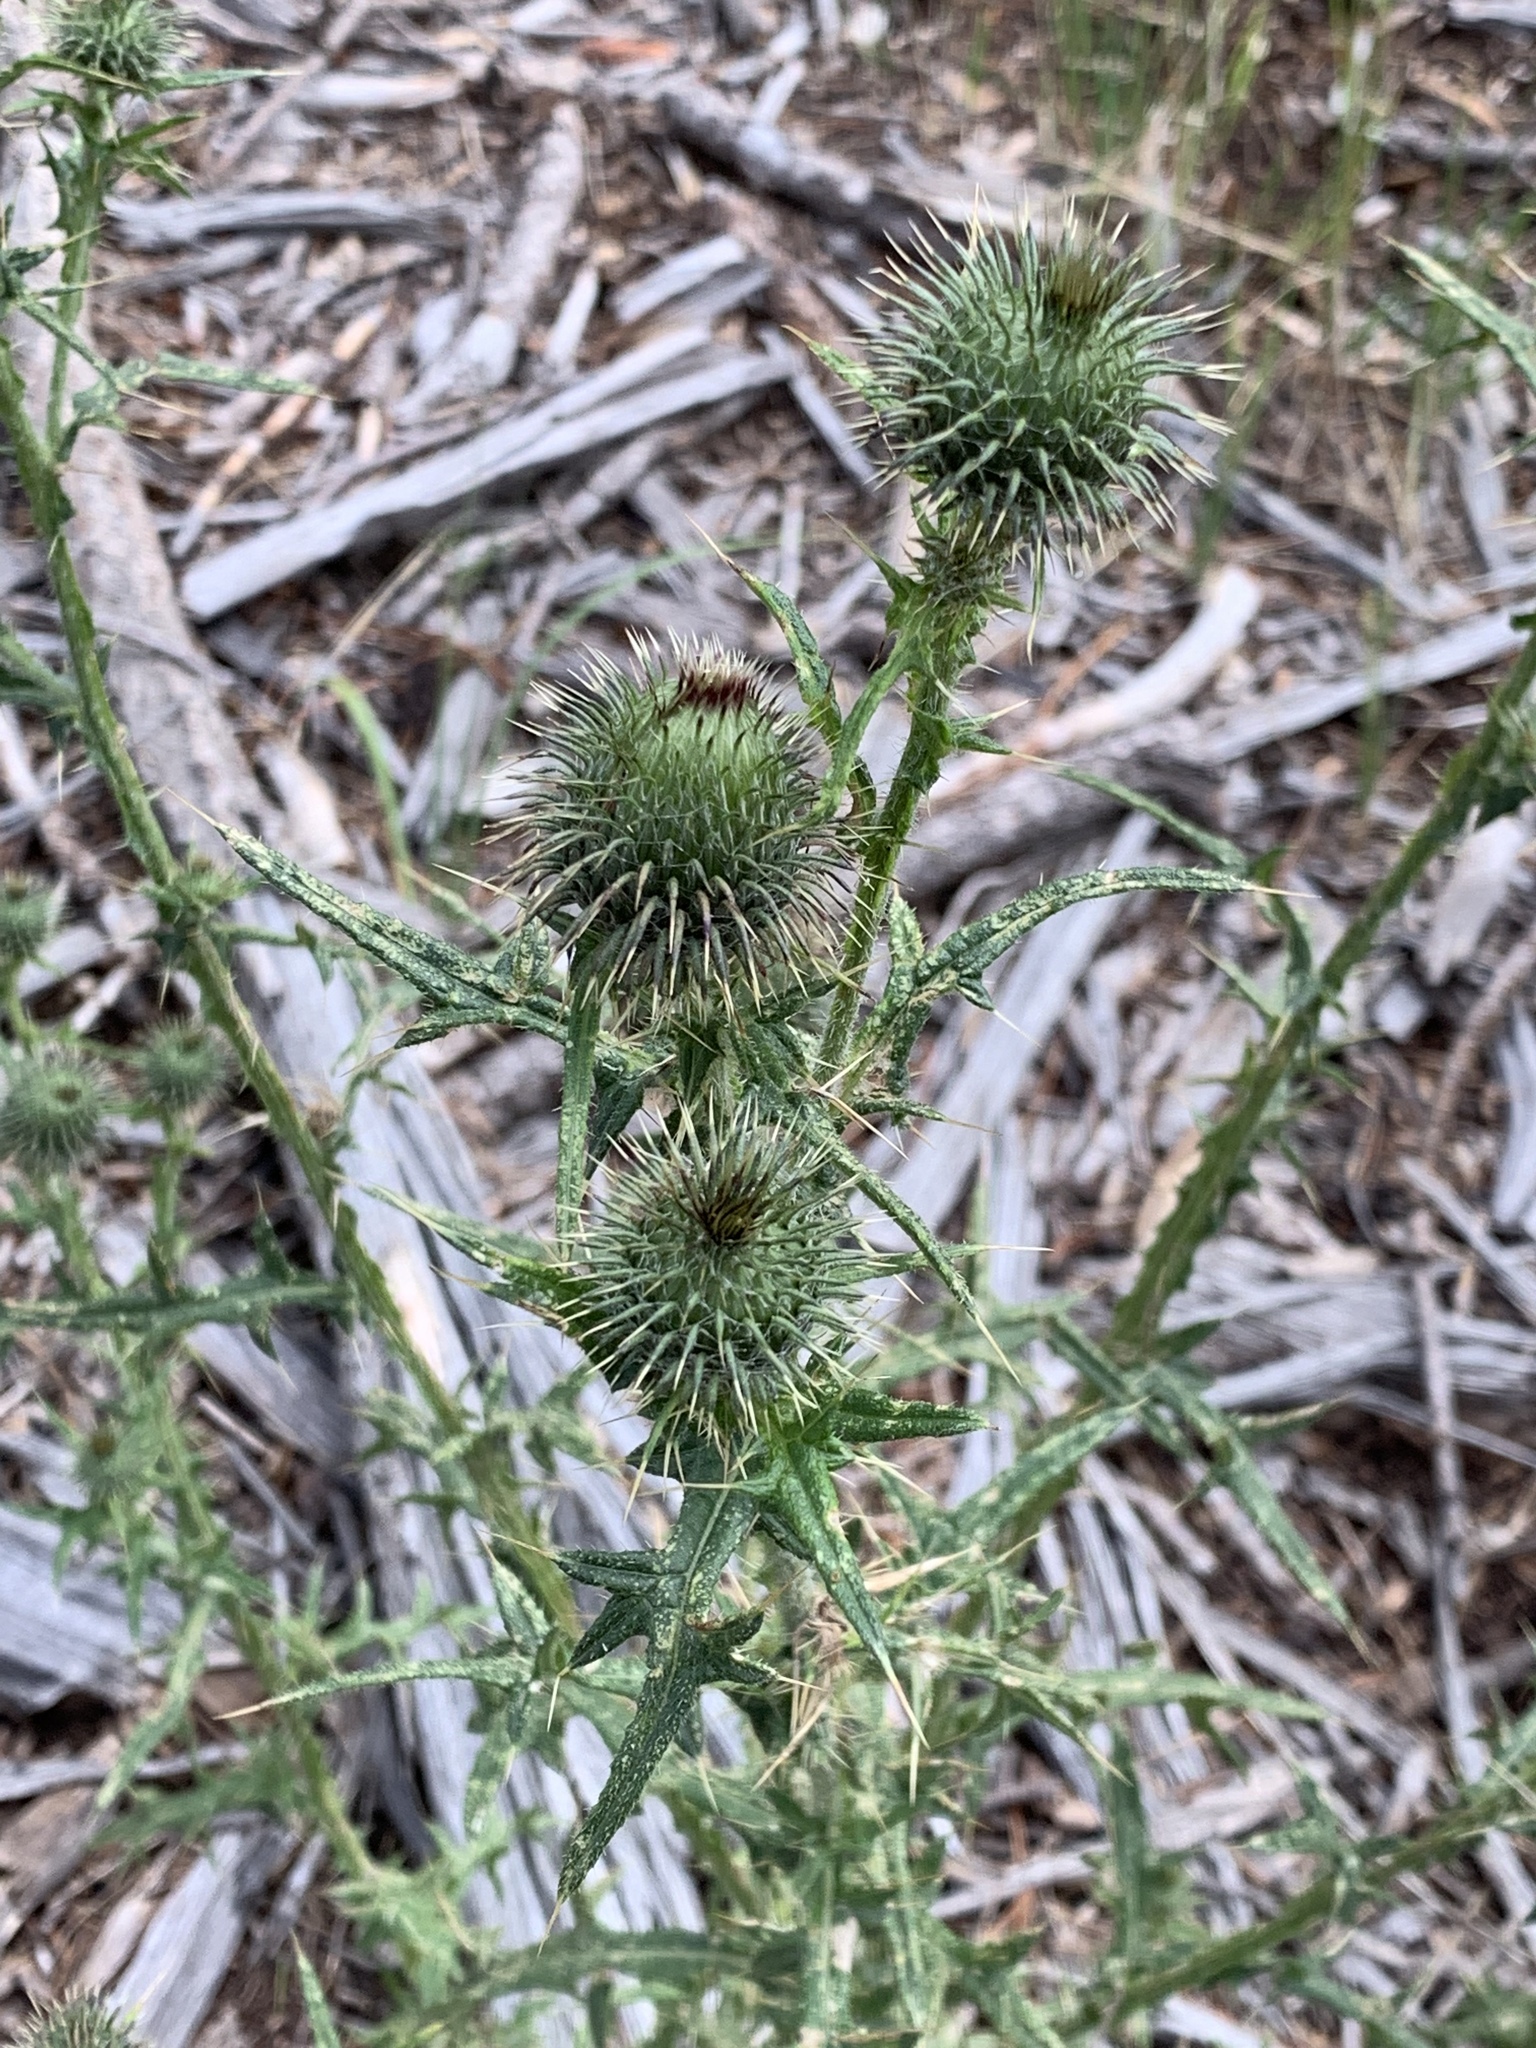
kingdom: Plantae
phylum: Tracheophyta
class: Magnoliopsida
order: Asterales
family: Asteraceae
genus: Cirsium
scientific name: Cirsium vulgare
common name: Bull thistle
